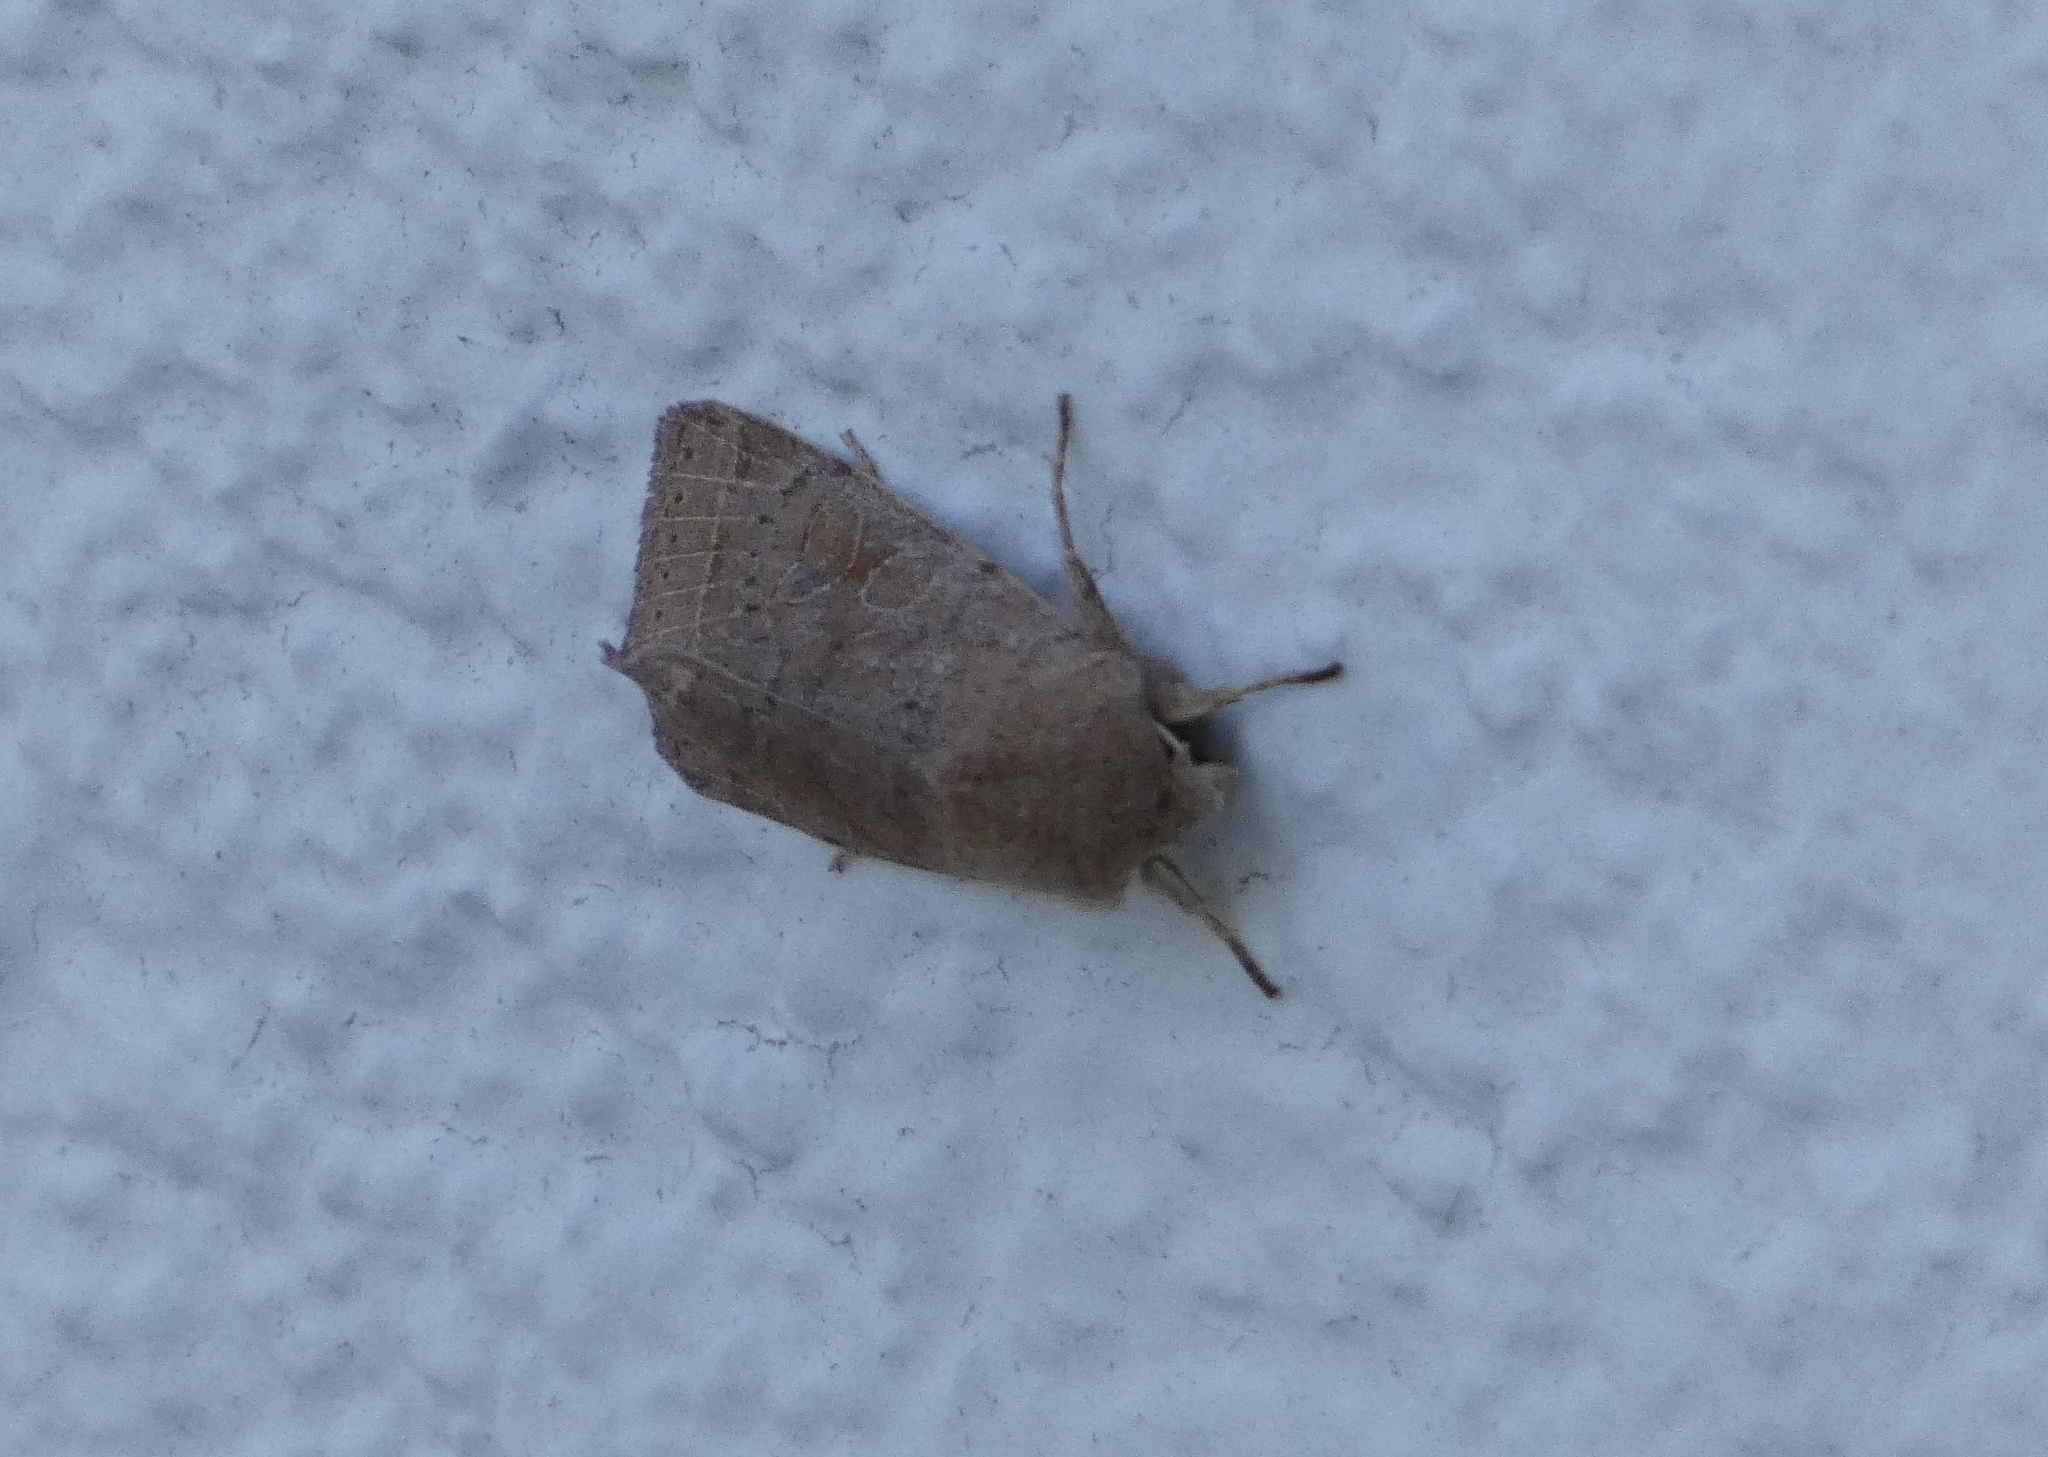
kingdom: Animalia
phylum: Arthropoda
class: Insecta
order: Lepidoptera
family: Noctuidae
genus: Orthosia
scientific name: Orthosia cerasi
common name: Common quaker
